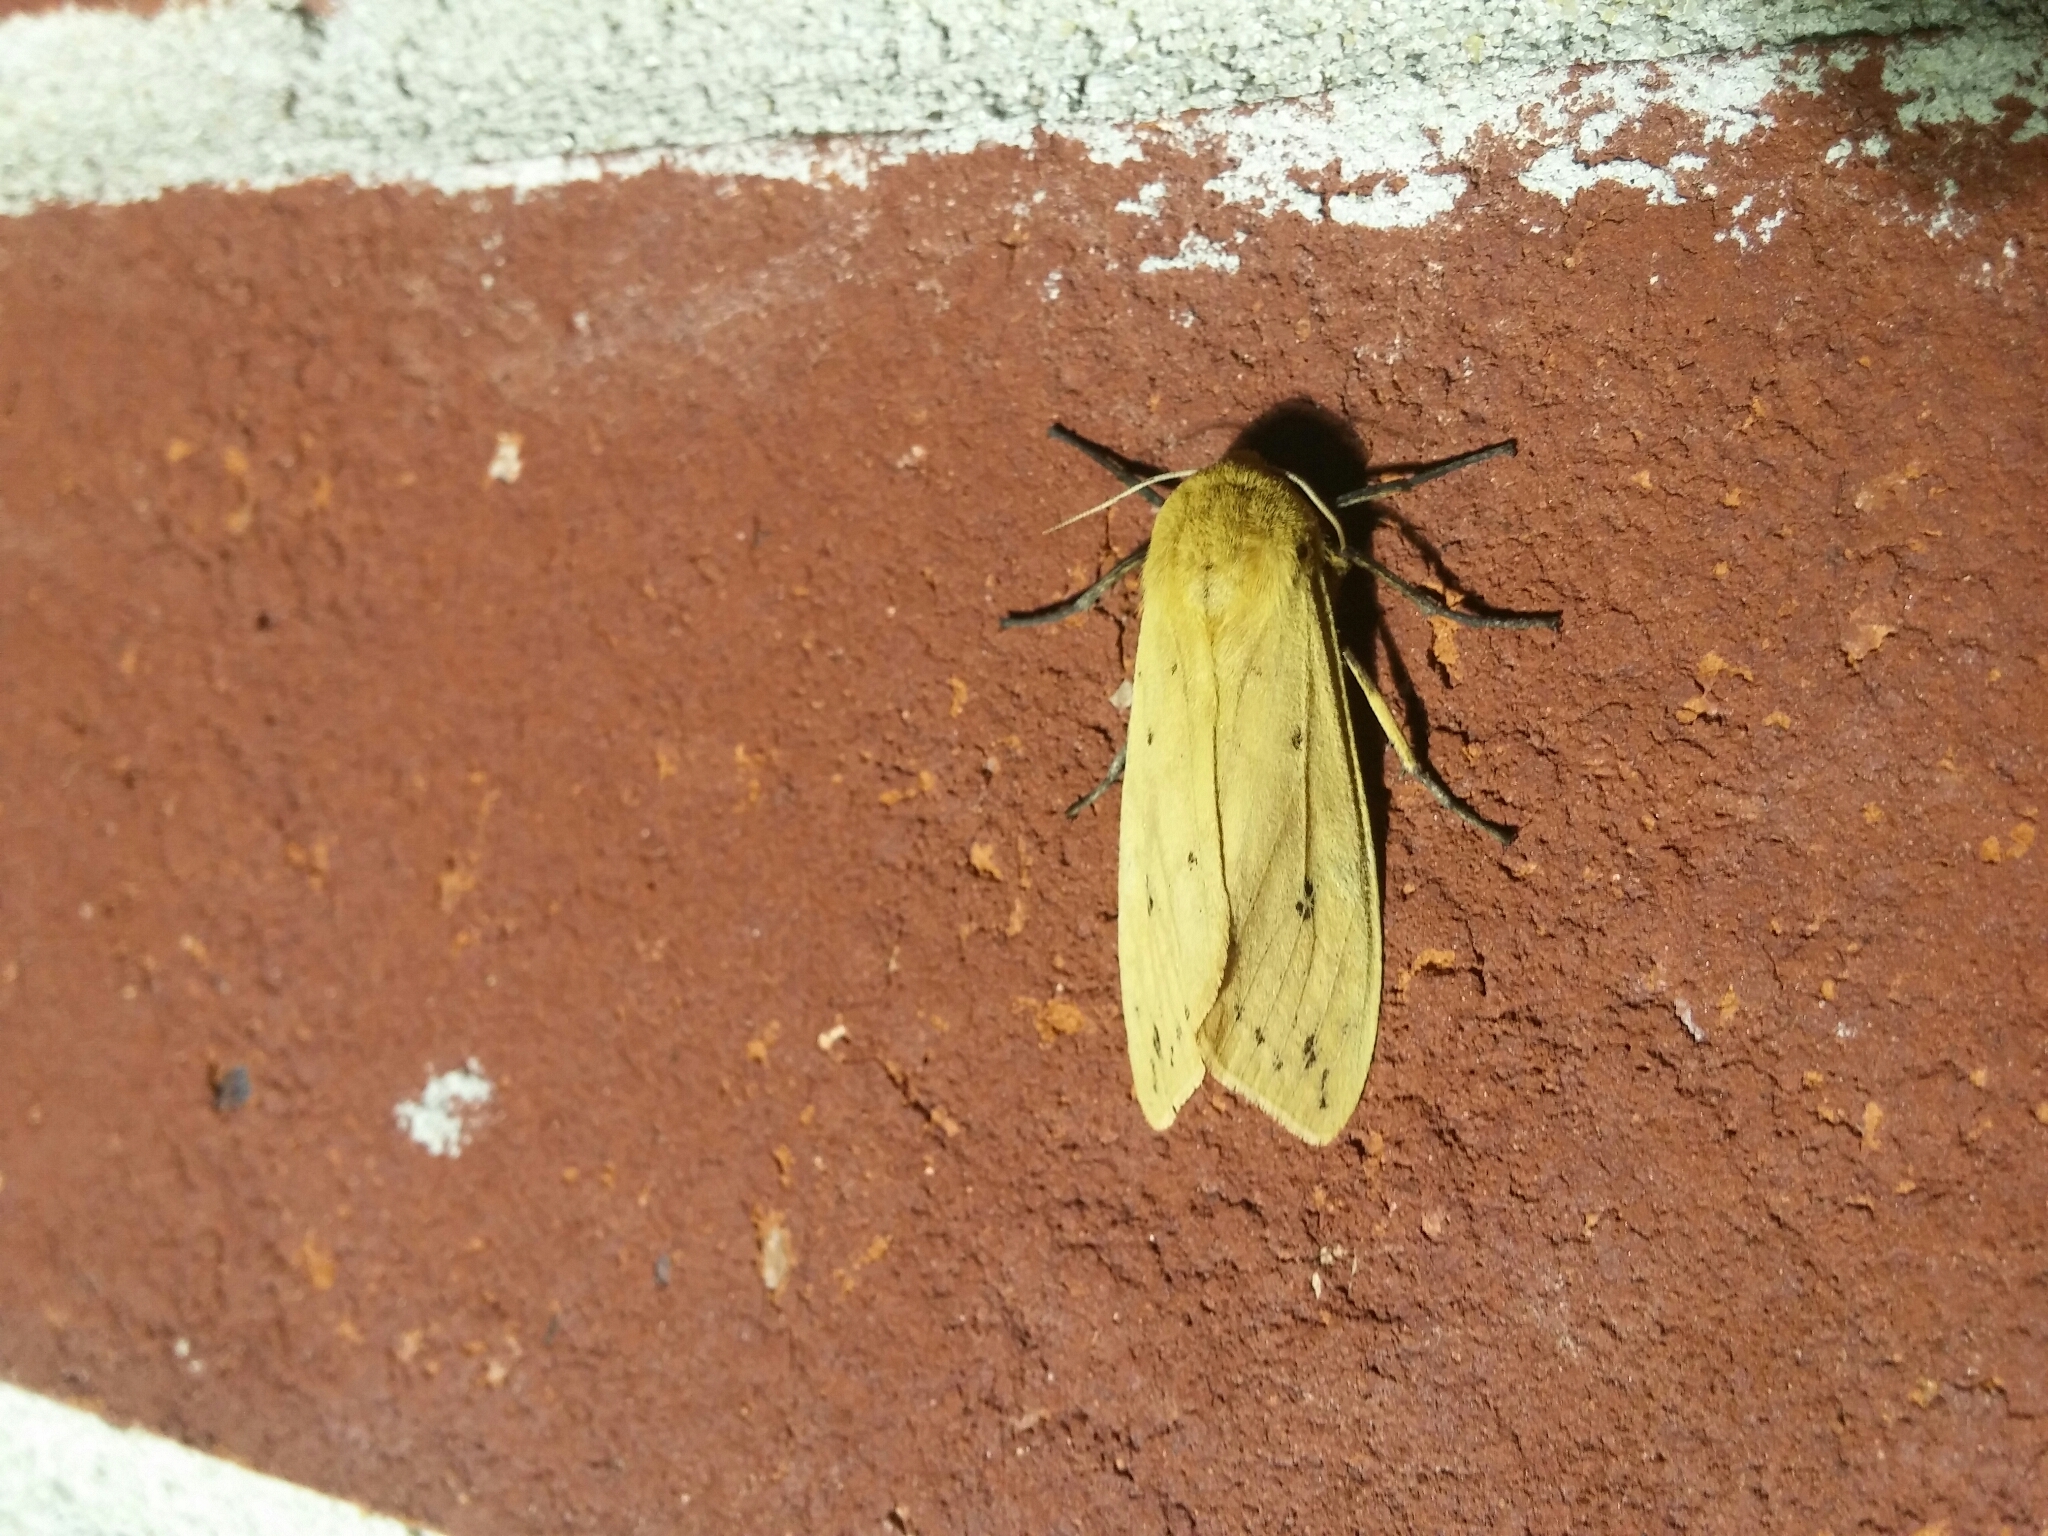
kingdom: Animalia
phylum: Arthropoda
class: Insecta
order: Lepidoptera
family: Erebidae
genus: Pyrrharctia
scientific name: Pyrrharctia isabella
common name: Isabella tiger moth
